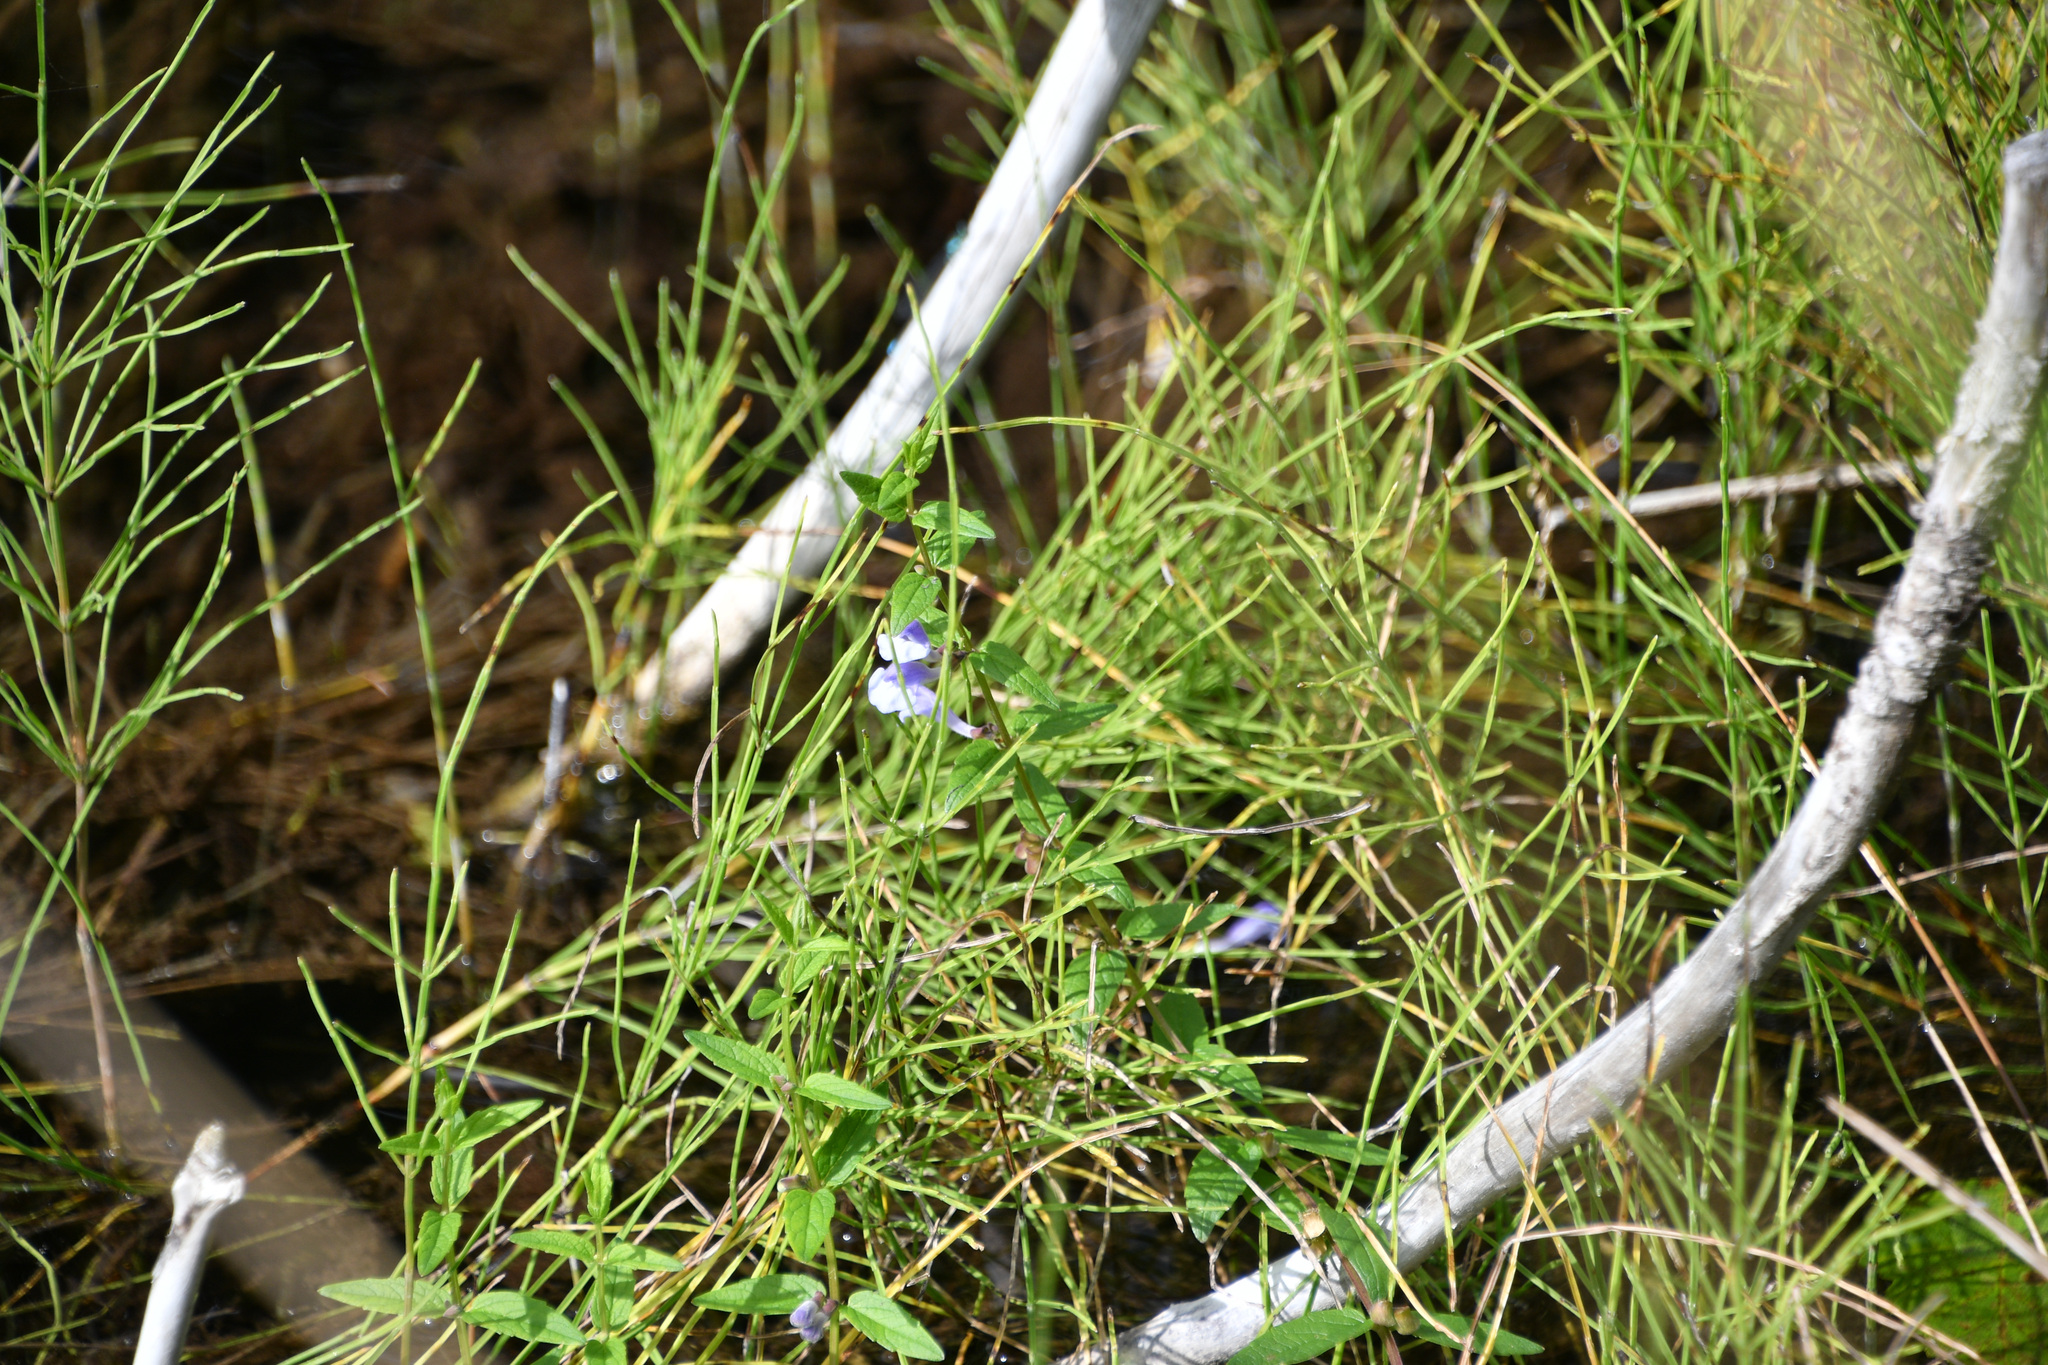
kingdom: Plantae
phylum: Tracheophyta
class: Magnoliopsida
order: Lamiales
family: Lamiaceae
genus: Scutellaria
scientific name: Scutellaria galericulata
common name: Skullcap
